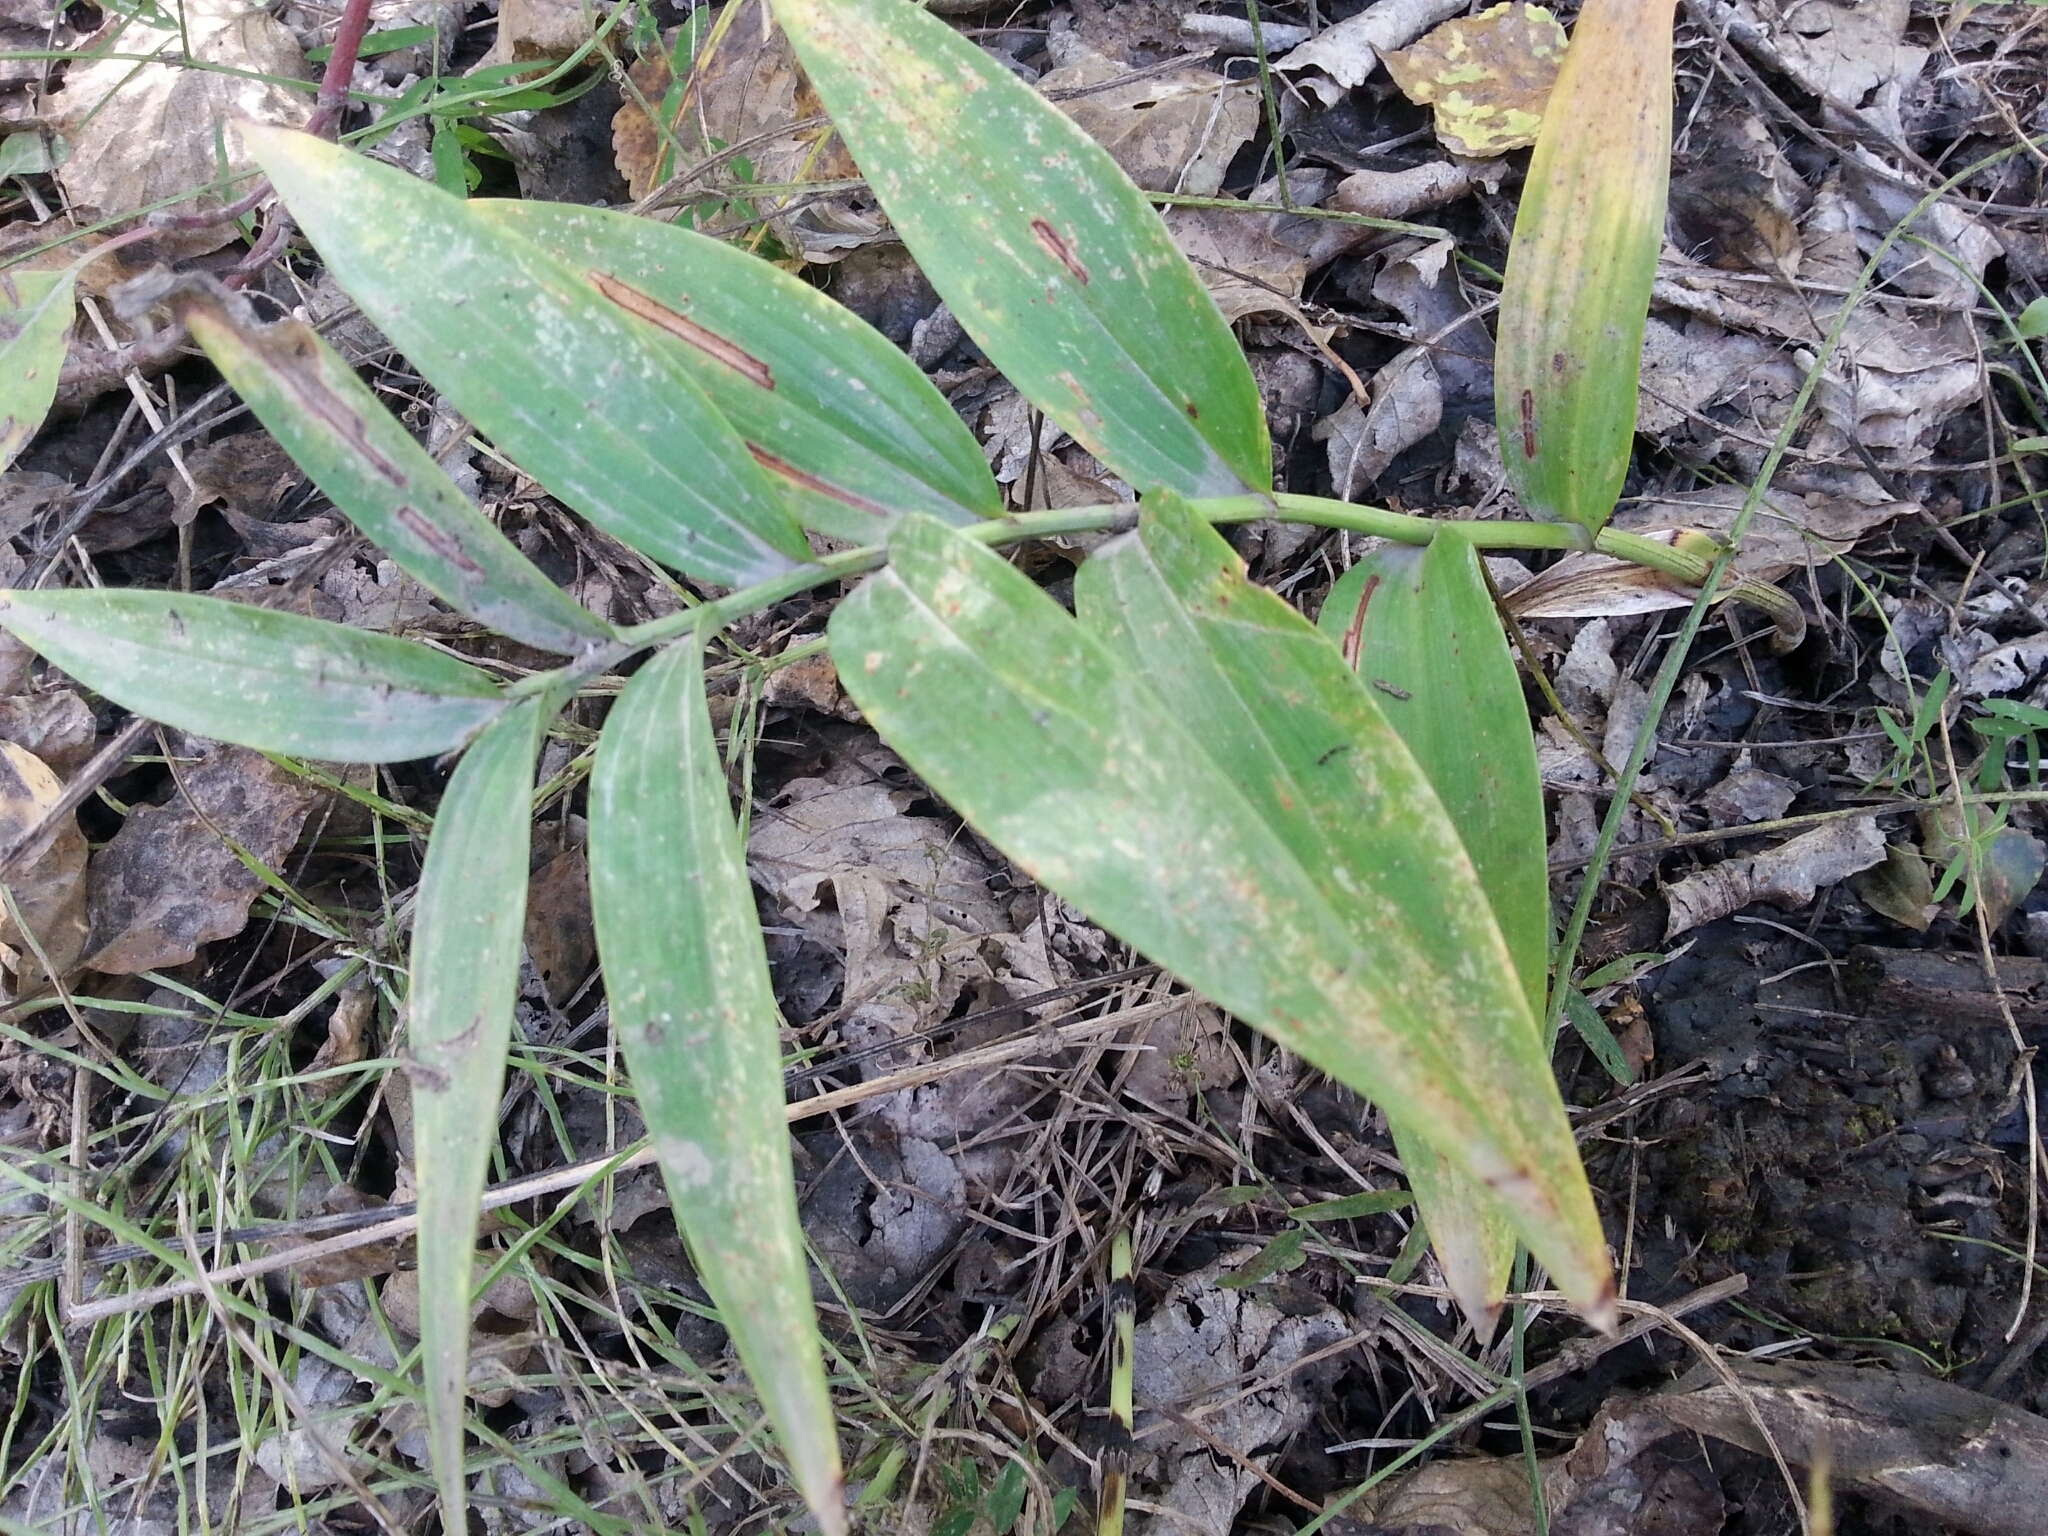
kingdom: Plantae
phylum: Tracheophyta
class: Liliopsida
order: Asparagales
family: Asparagaceae
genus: Maianthemum
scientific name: Maianthemum stellatum
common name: Little false solomon's seal
